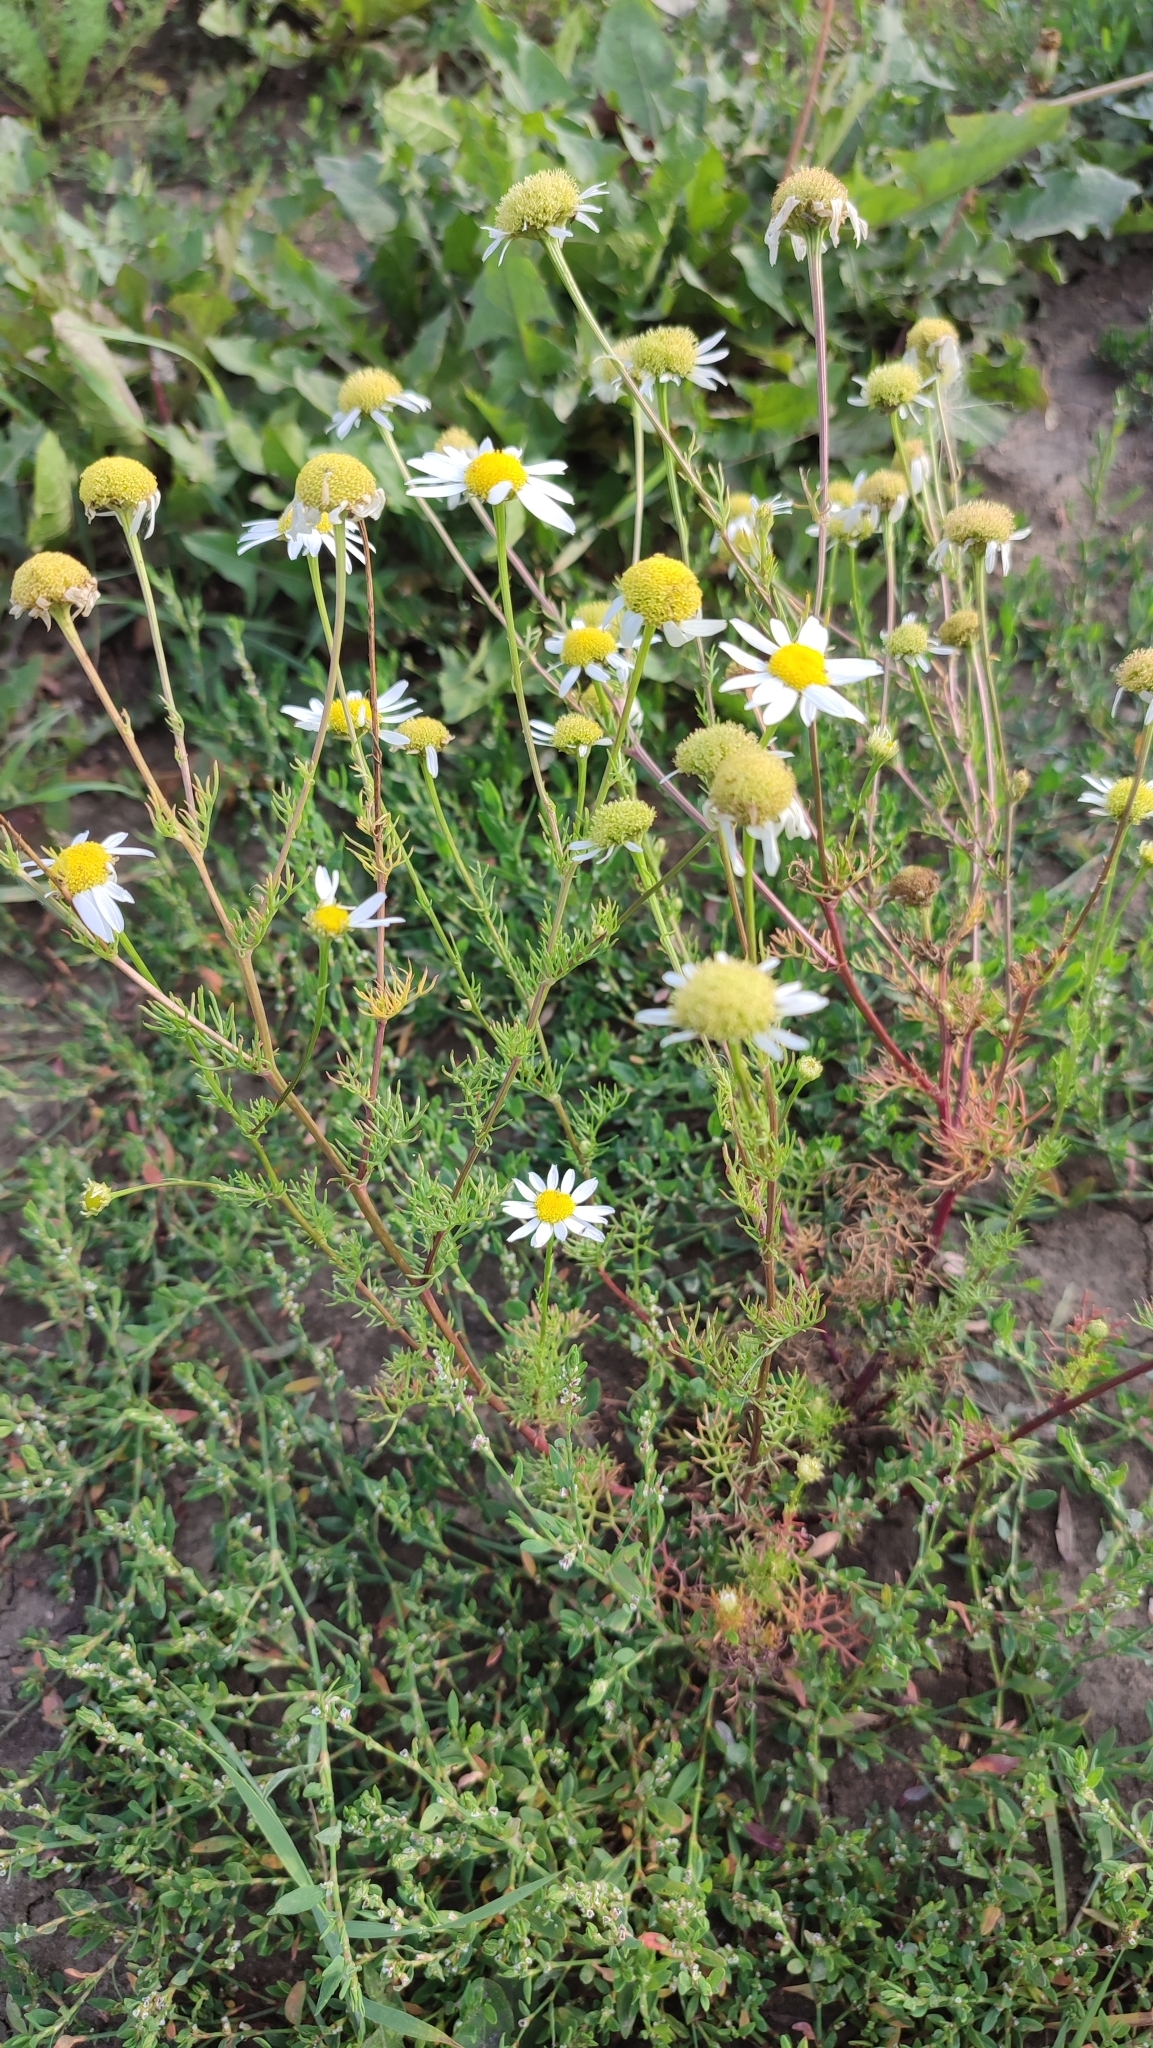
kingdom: Plantae
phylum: Tracheophyta
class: Magnoliopsida
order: Asterales
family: Asteraceae
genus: Tripleurospermum
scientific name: Tripleurospermum inodorum
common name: Scentless mayweed
